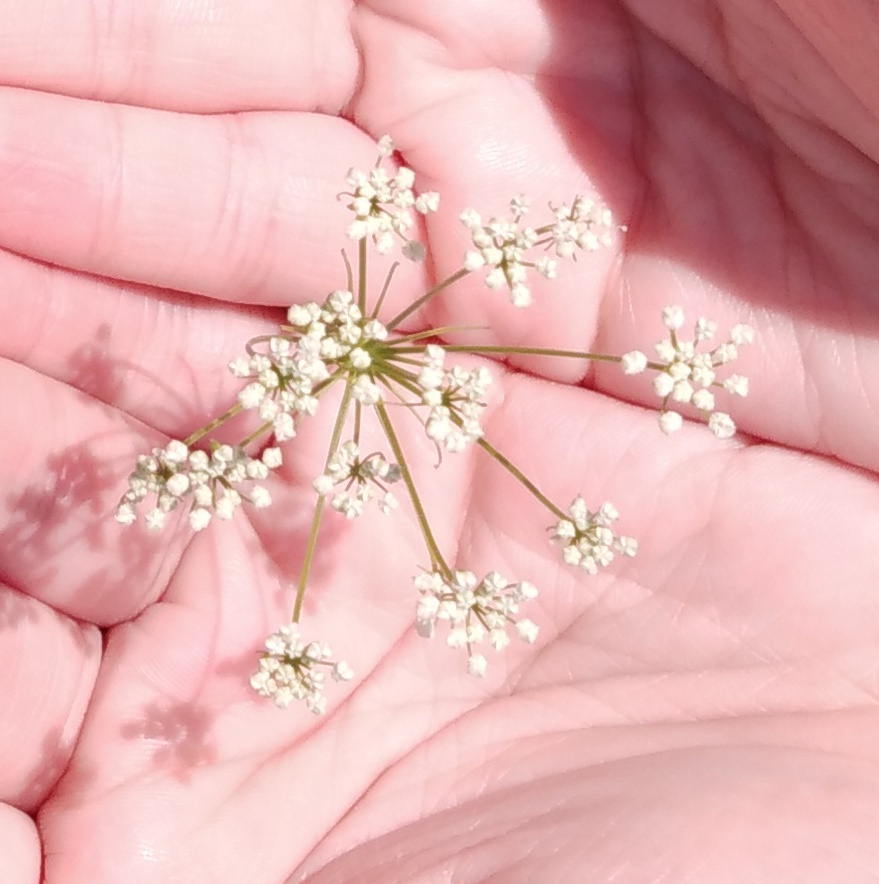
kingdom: Plantae
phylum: Tracheophyta
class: Magnoliopsida
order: Apiales
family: Apiaceae
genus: Falcaria
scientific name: Falcaria vulgaris
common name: Longleaf
